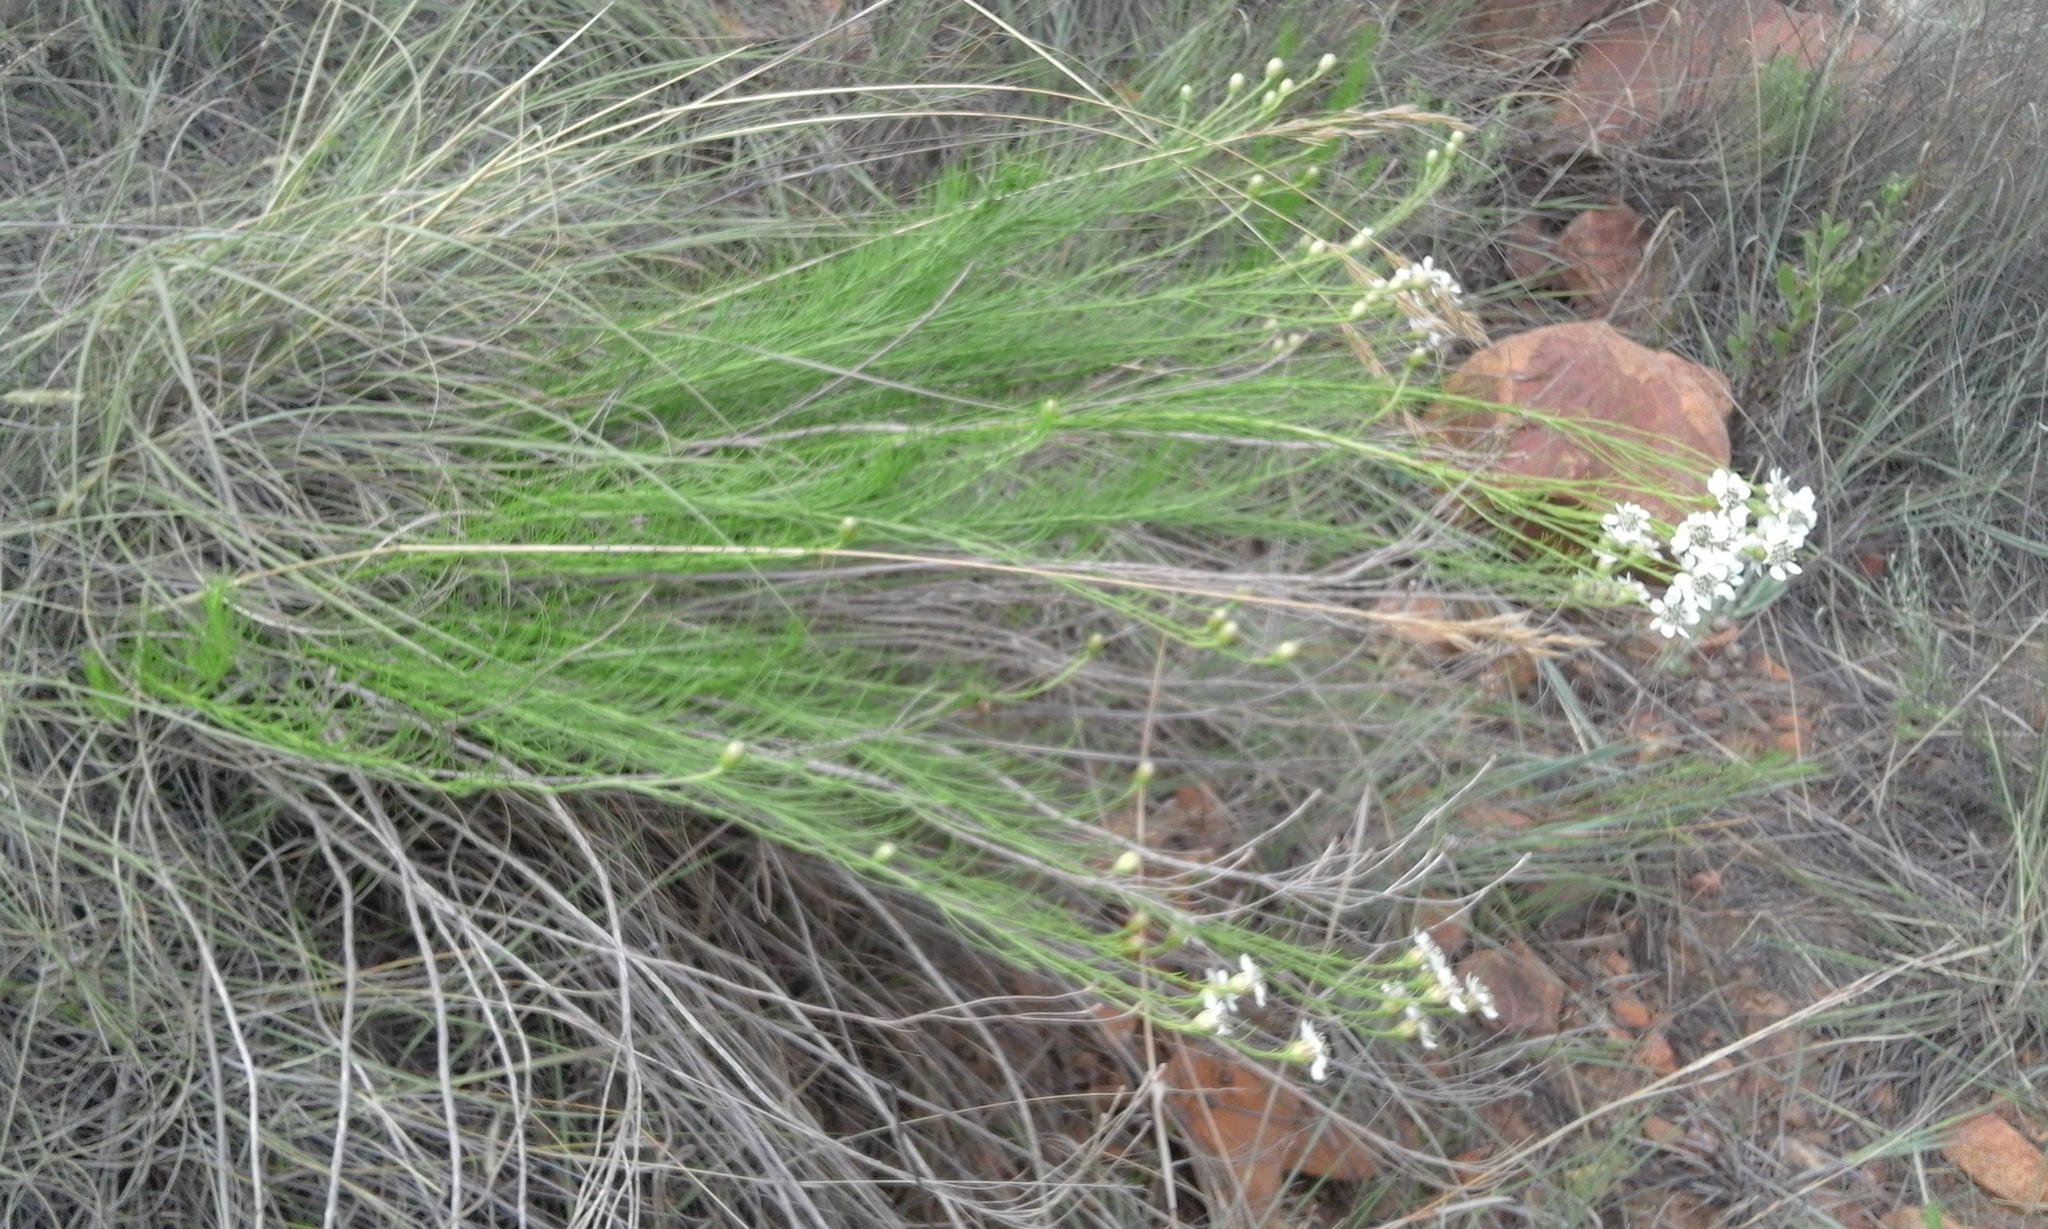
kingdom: Plantae
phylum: Tracheophyta
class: Magnoliopsida
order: Asterales
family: Asteraceae
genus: Callilepis
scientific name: Callilepis normae
